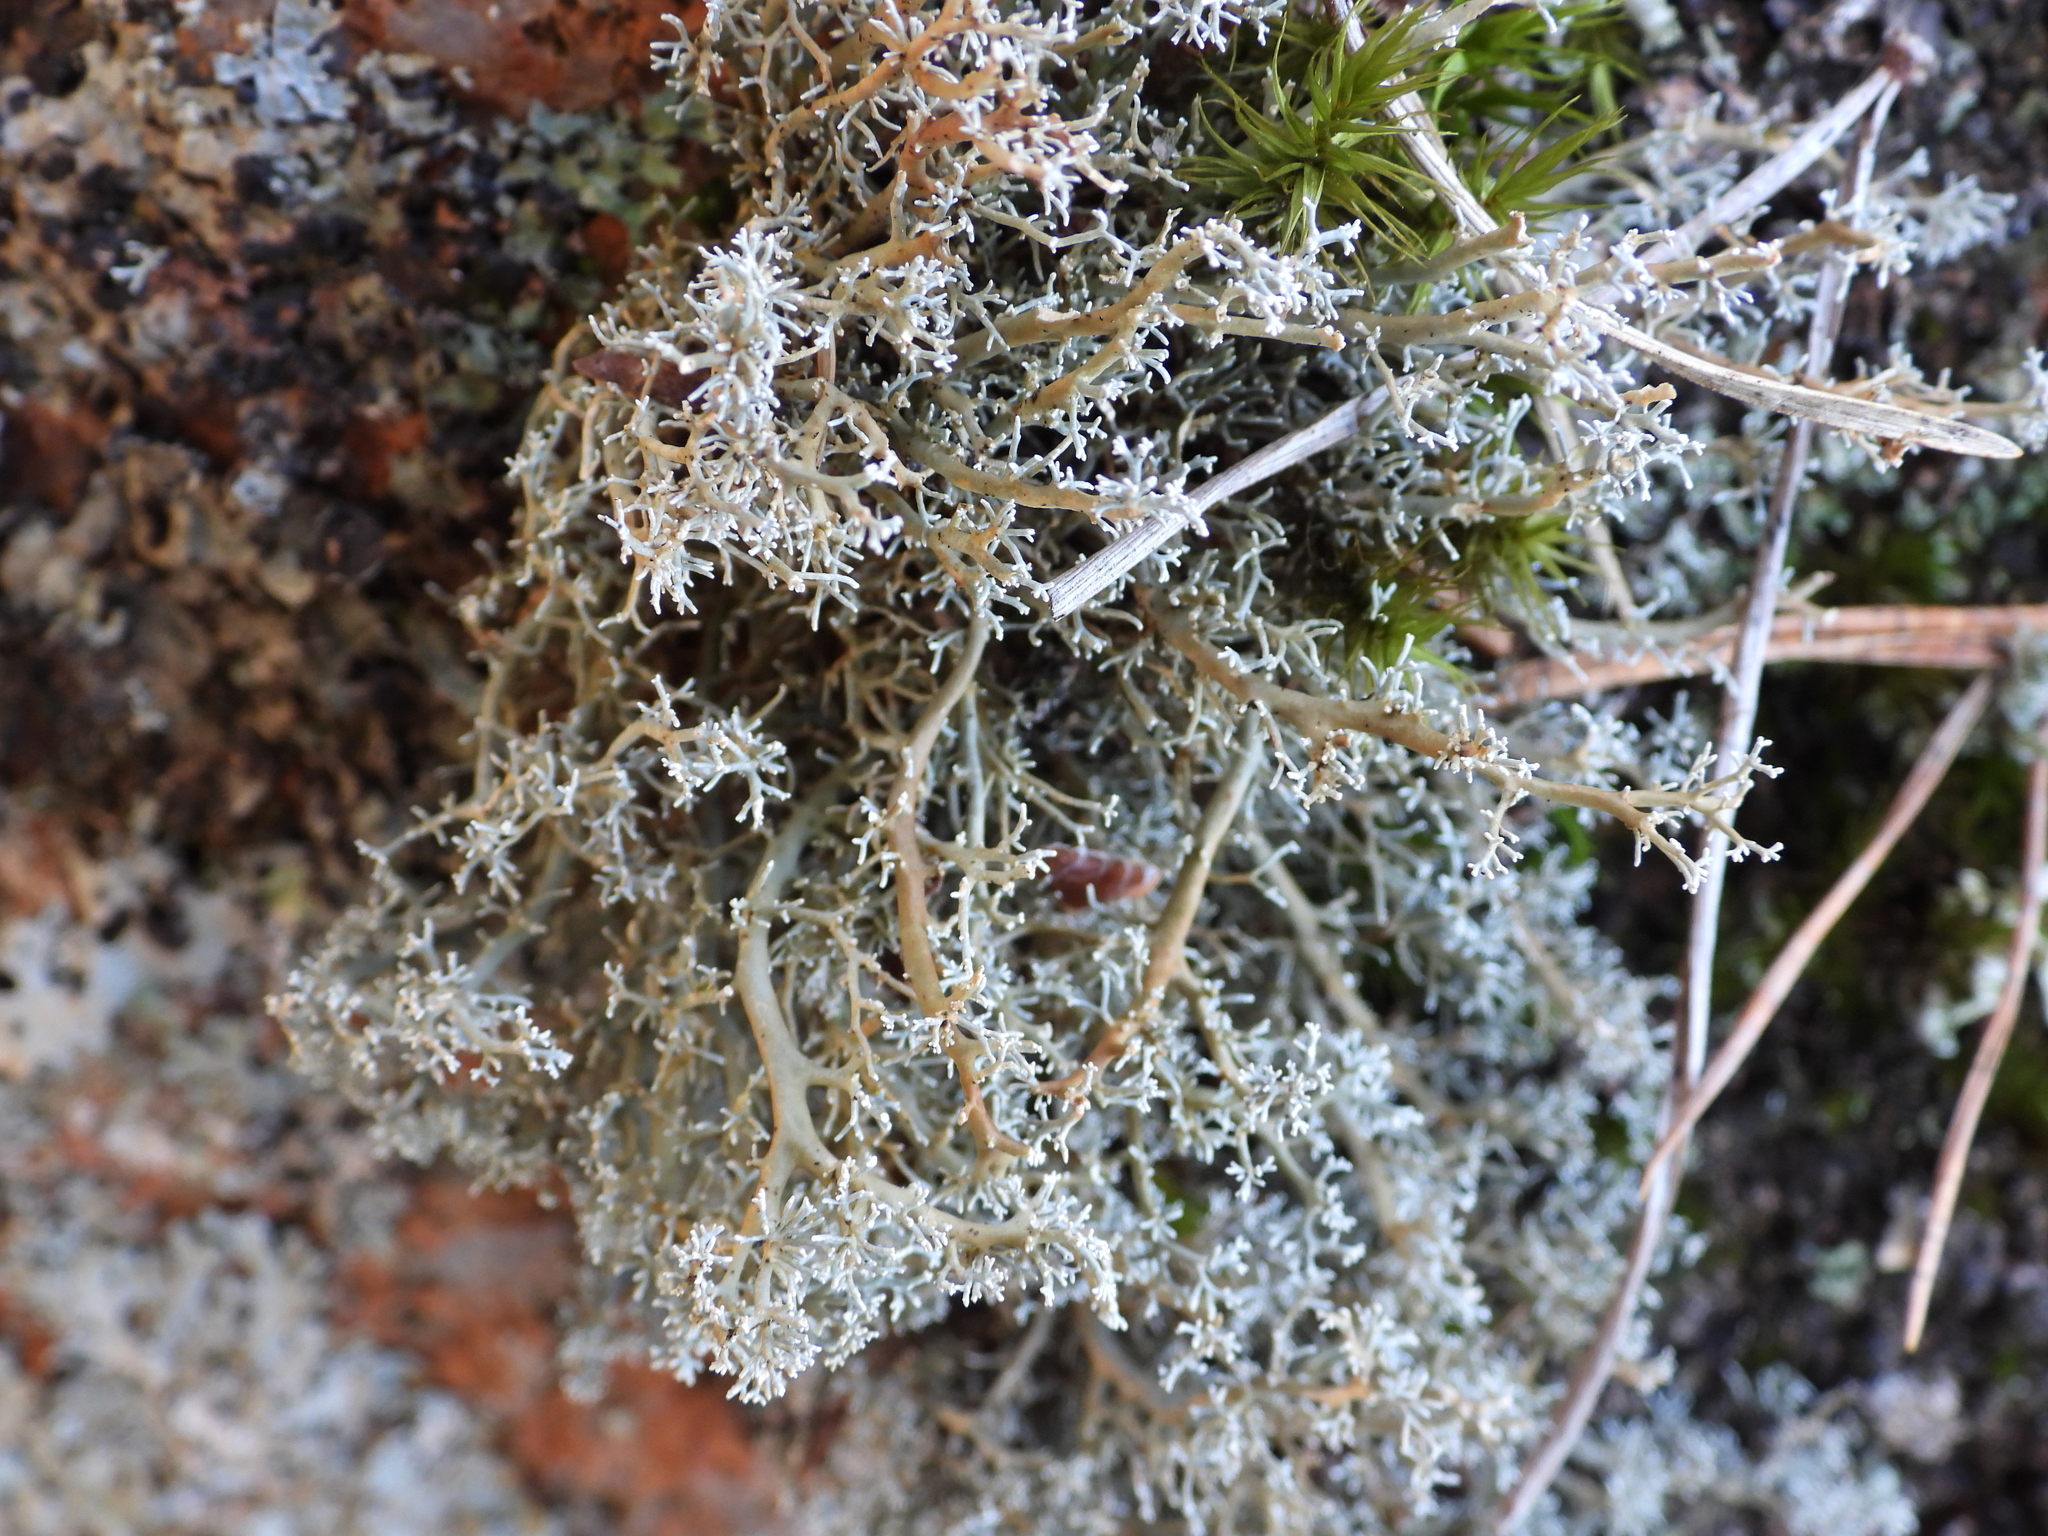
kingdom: Fungi
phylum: Ascomycota
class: Lecanoromycetes
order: Lecanorales
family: Sphaerophoraceae
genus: Sphaerophorus
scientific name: Sphaerophorus globosus
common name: Globe ball lichen
